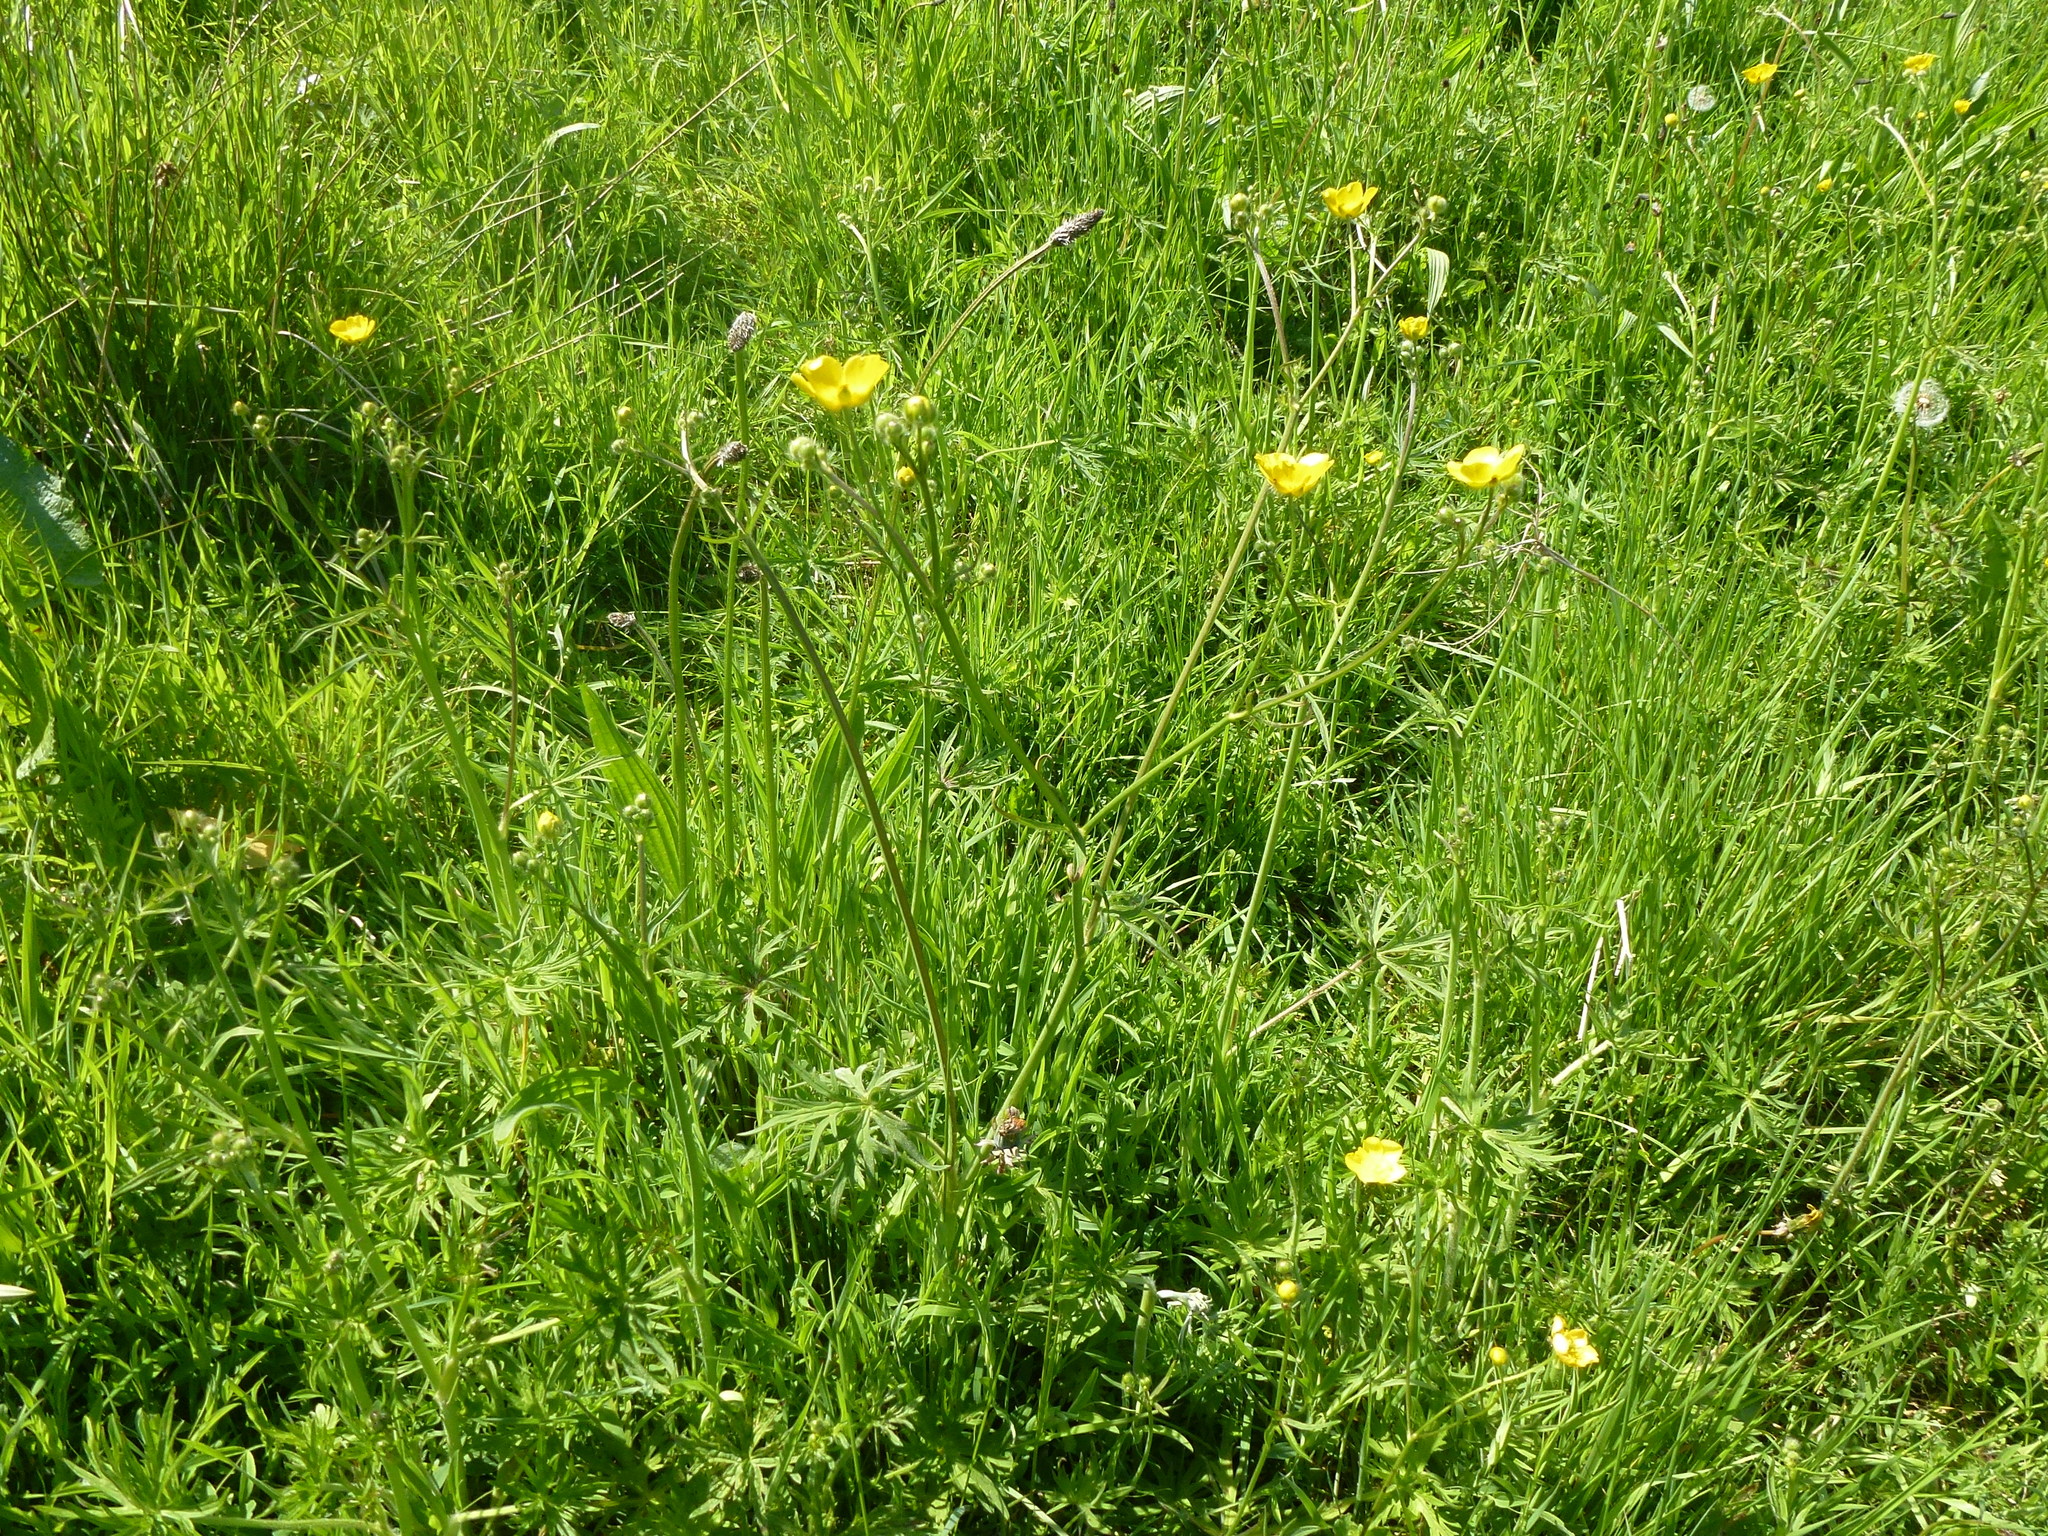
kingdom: Plantae
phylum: Tracheophyta
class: Magnoliopsida
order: Ranunculales
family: Ranunculaceae
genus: Ranunculus
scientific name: Ranunculus acris
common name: Meadow buttercup
